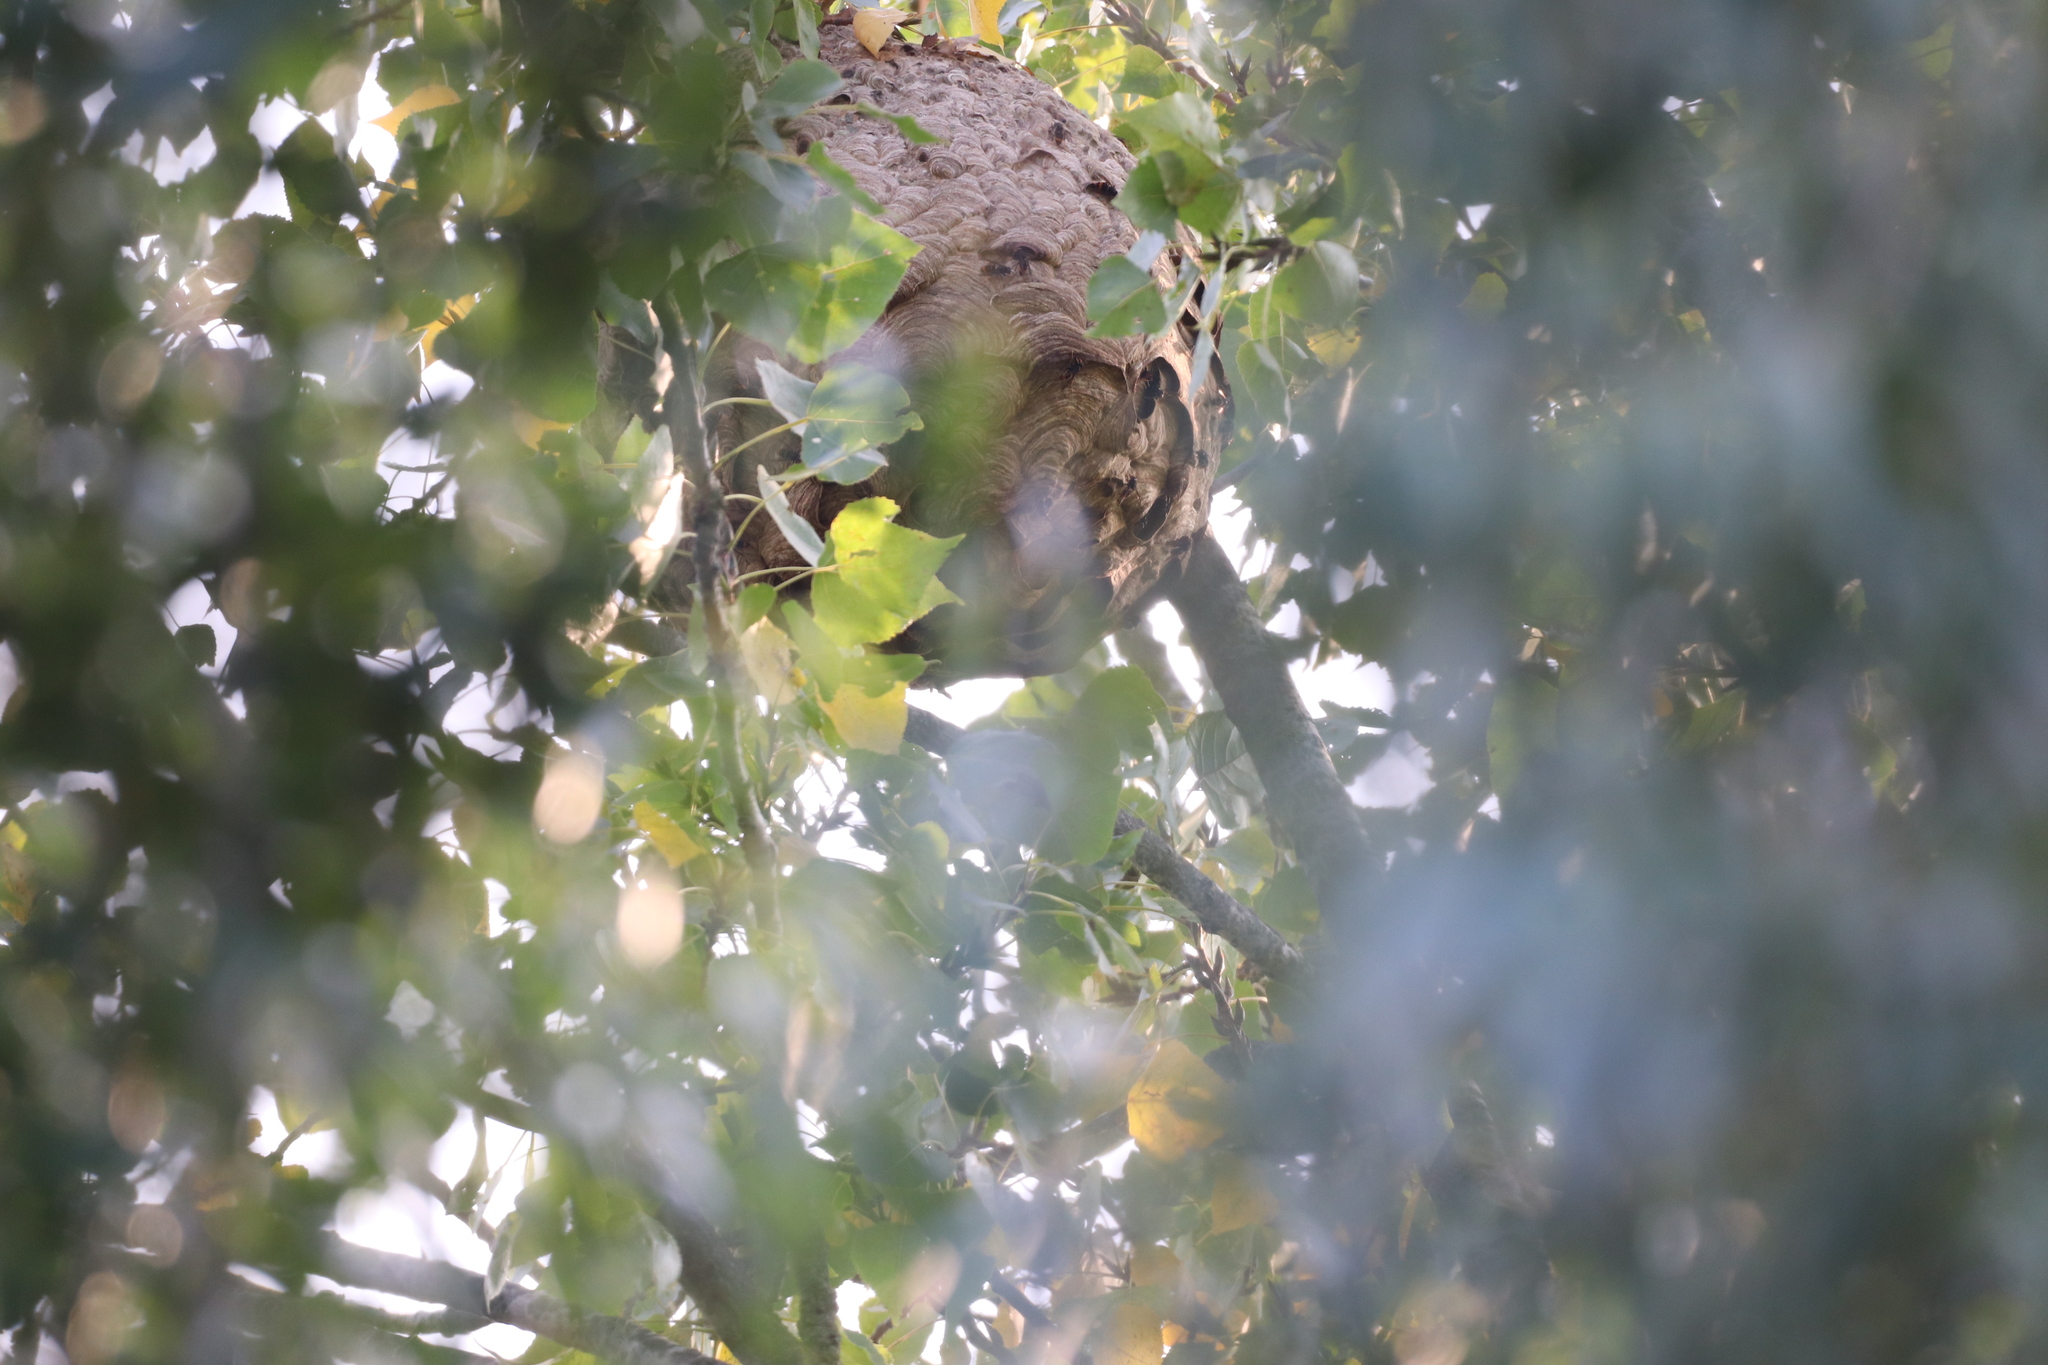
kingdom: Animalia
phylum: Arthropoda
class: Insecta
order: Hymenoptera
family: Vespidae
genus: Vespa
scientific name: Vespa velutina
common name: Asian hornet
